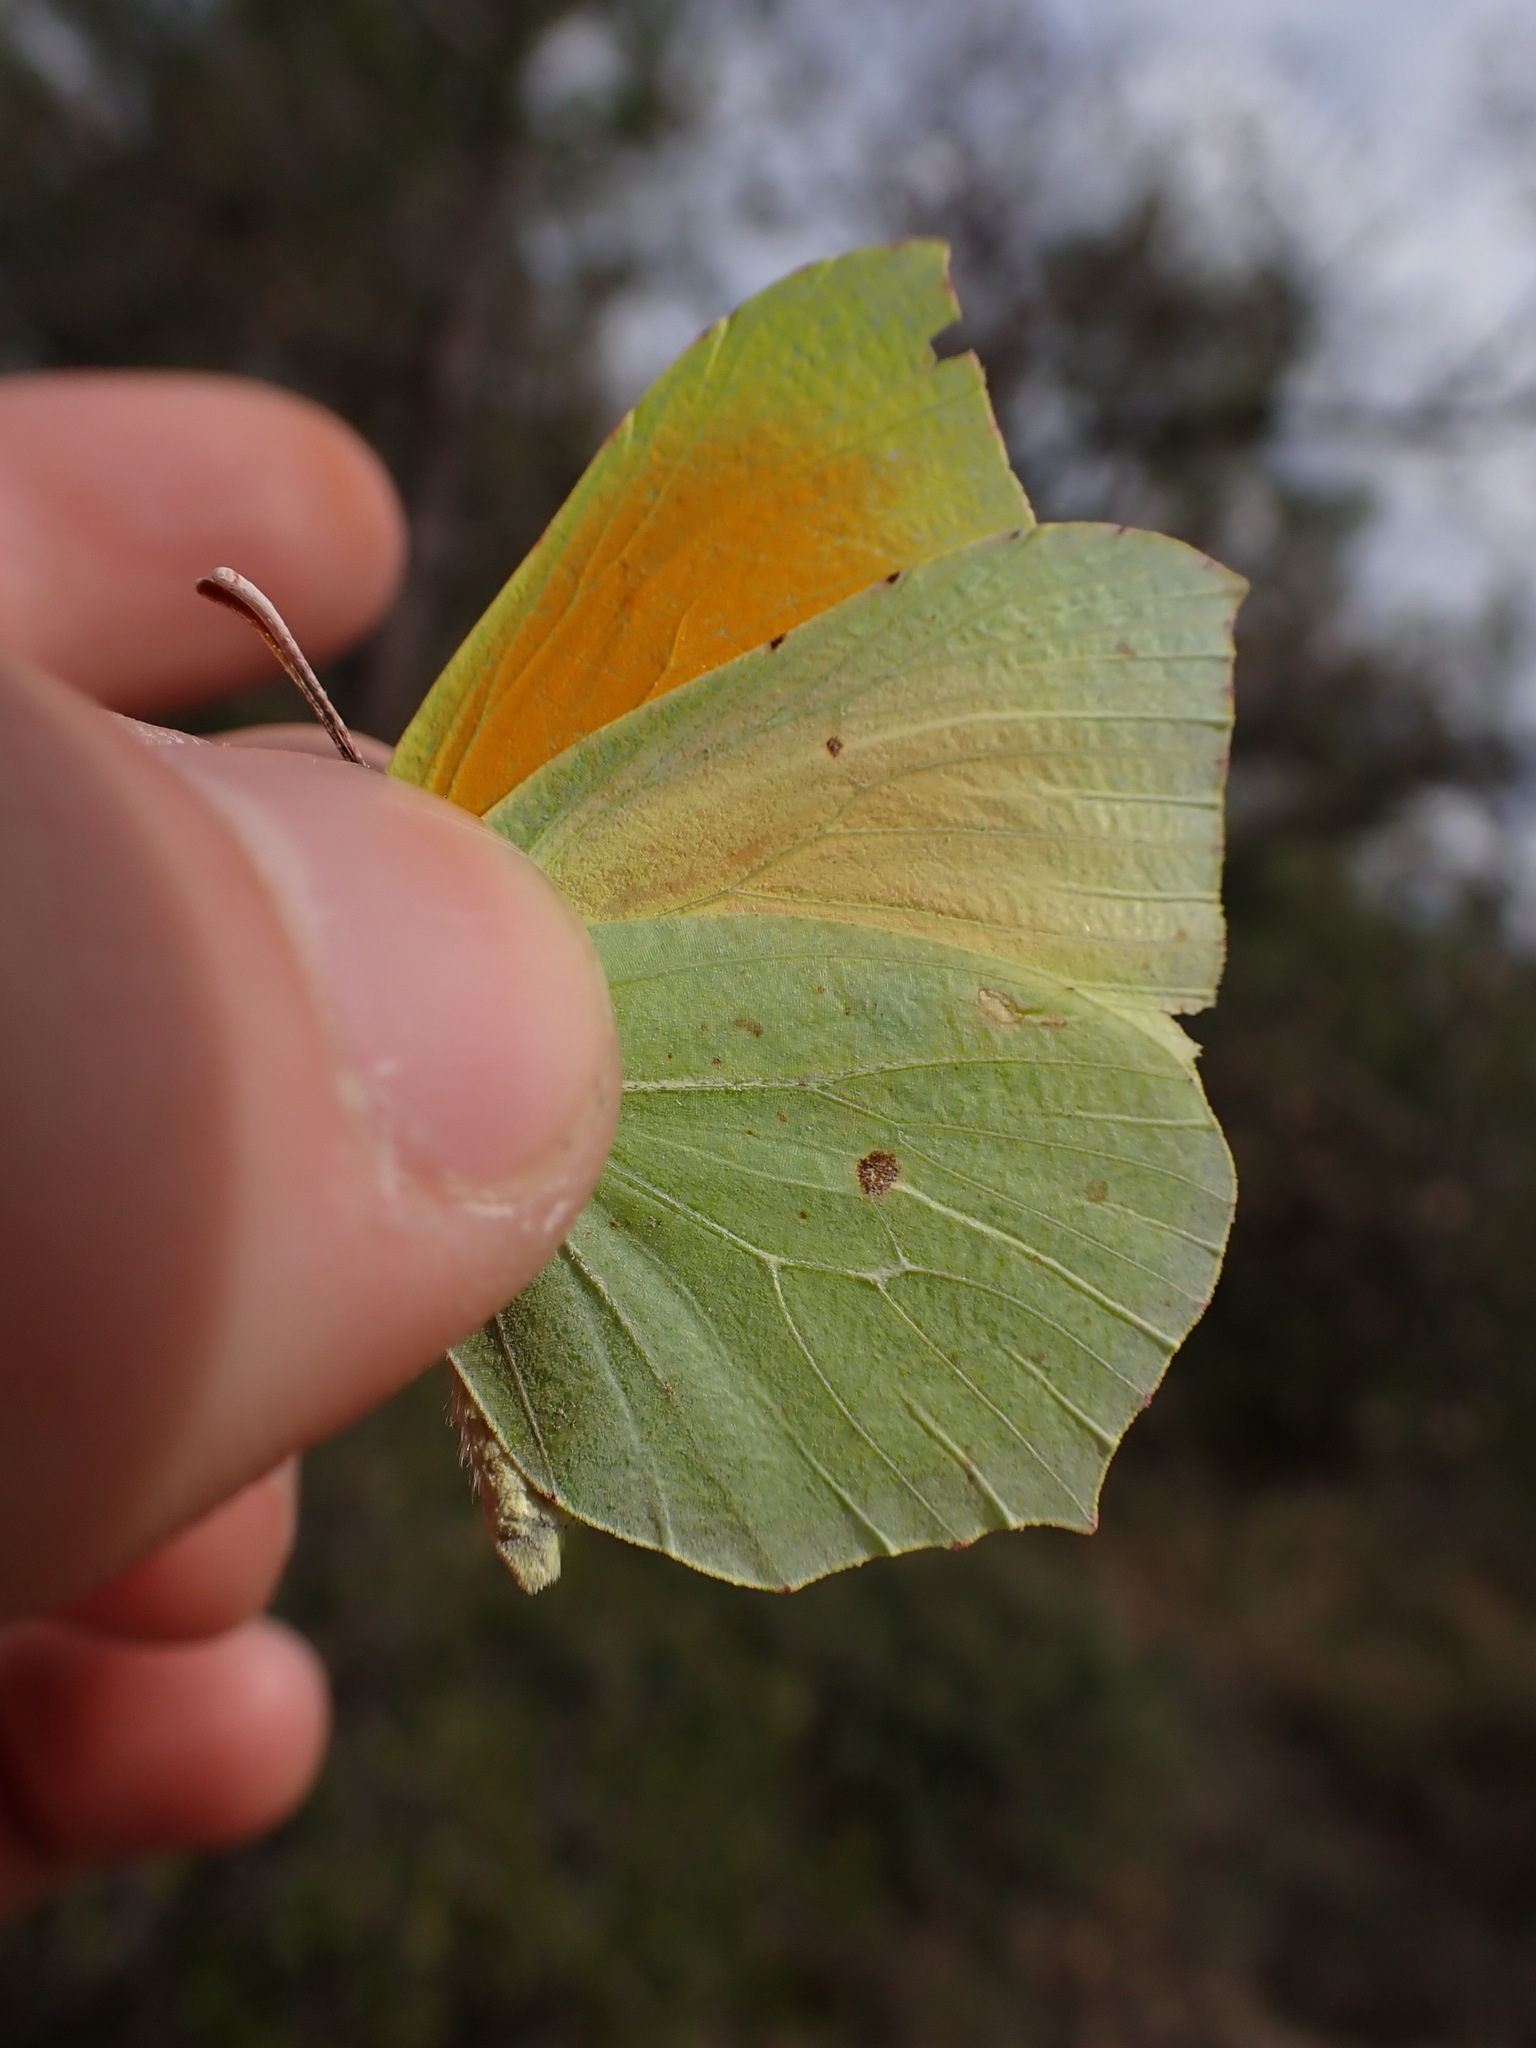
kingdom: Animalia
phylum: Arthropoda
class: Insecta
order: Lepidoptera
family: Pieridae
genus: Gonepteryx
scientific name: Gonepteryx cleopatra
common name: Cleopatra
